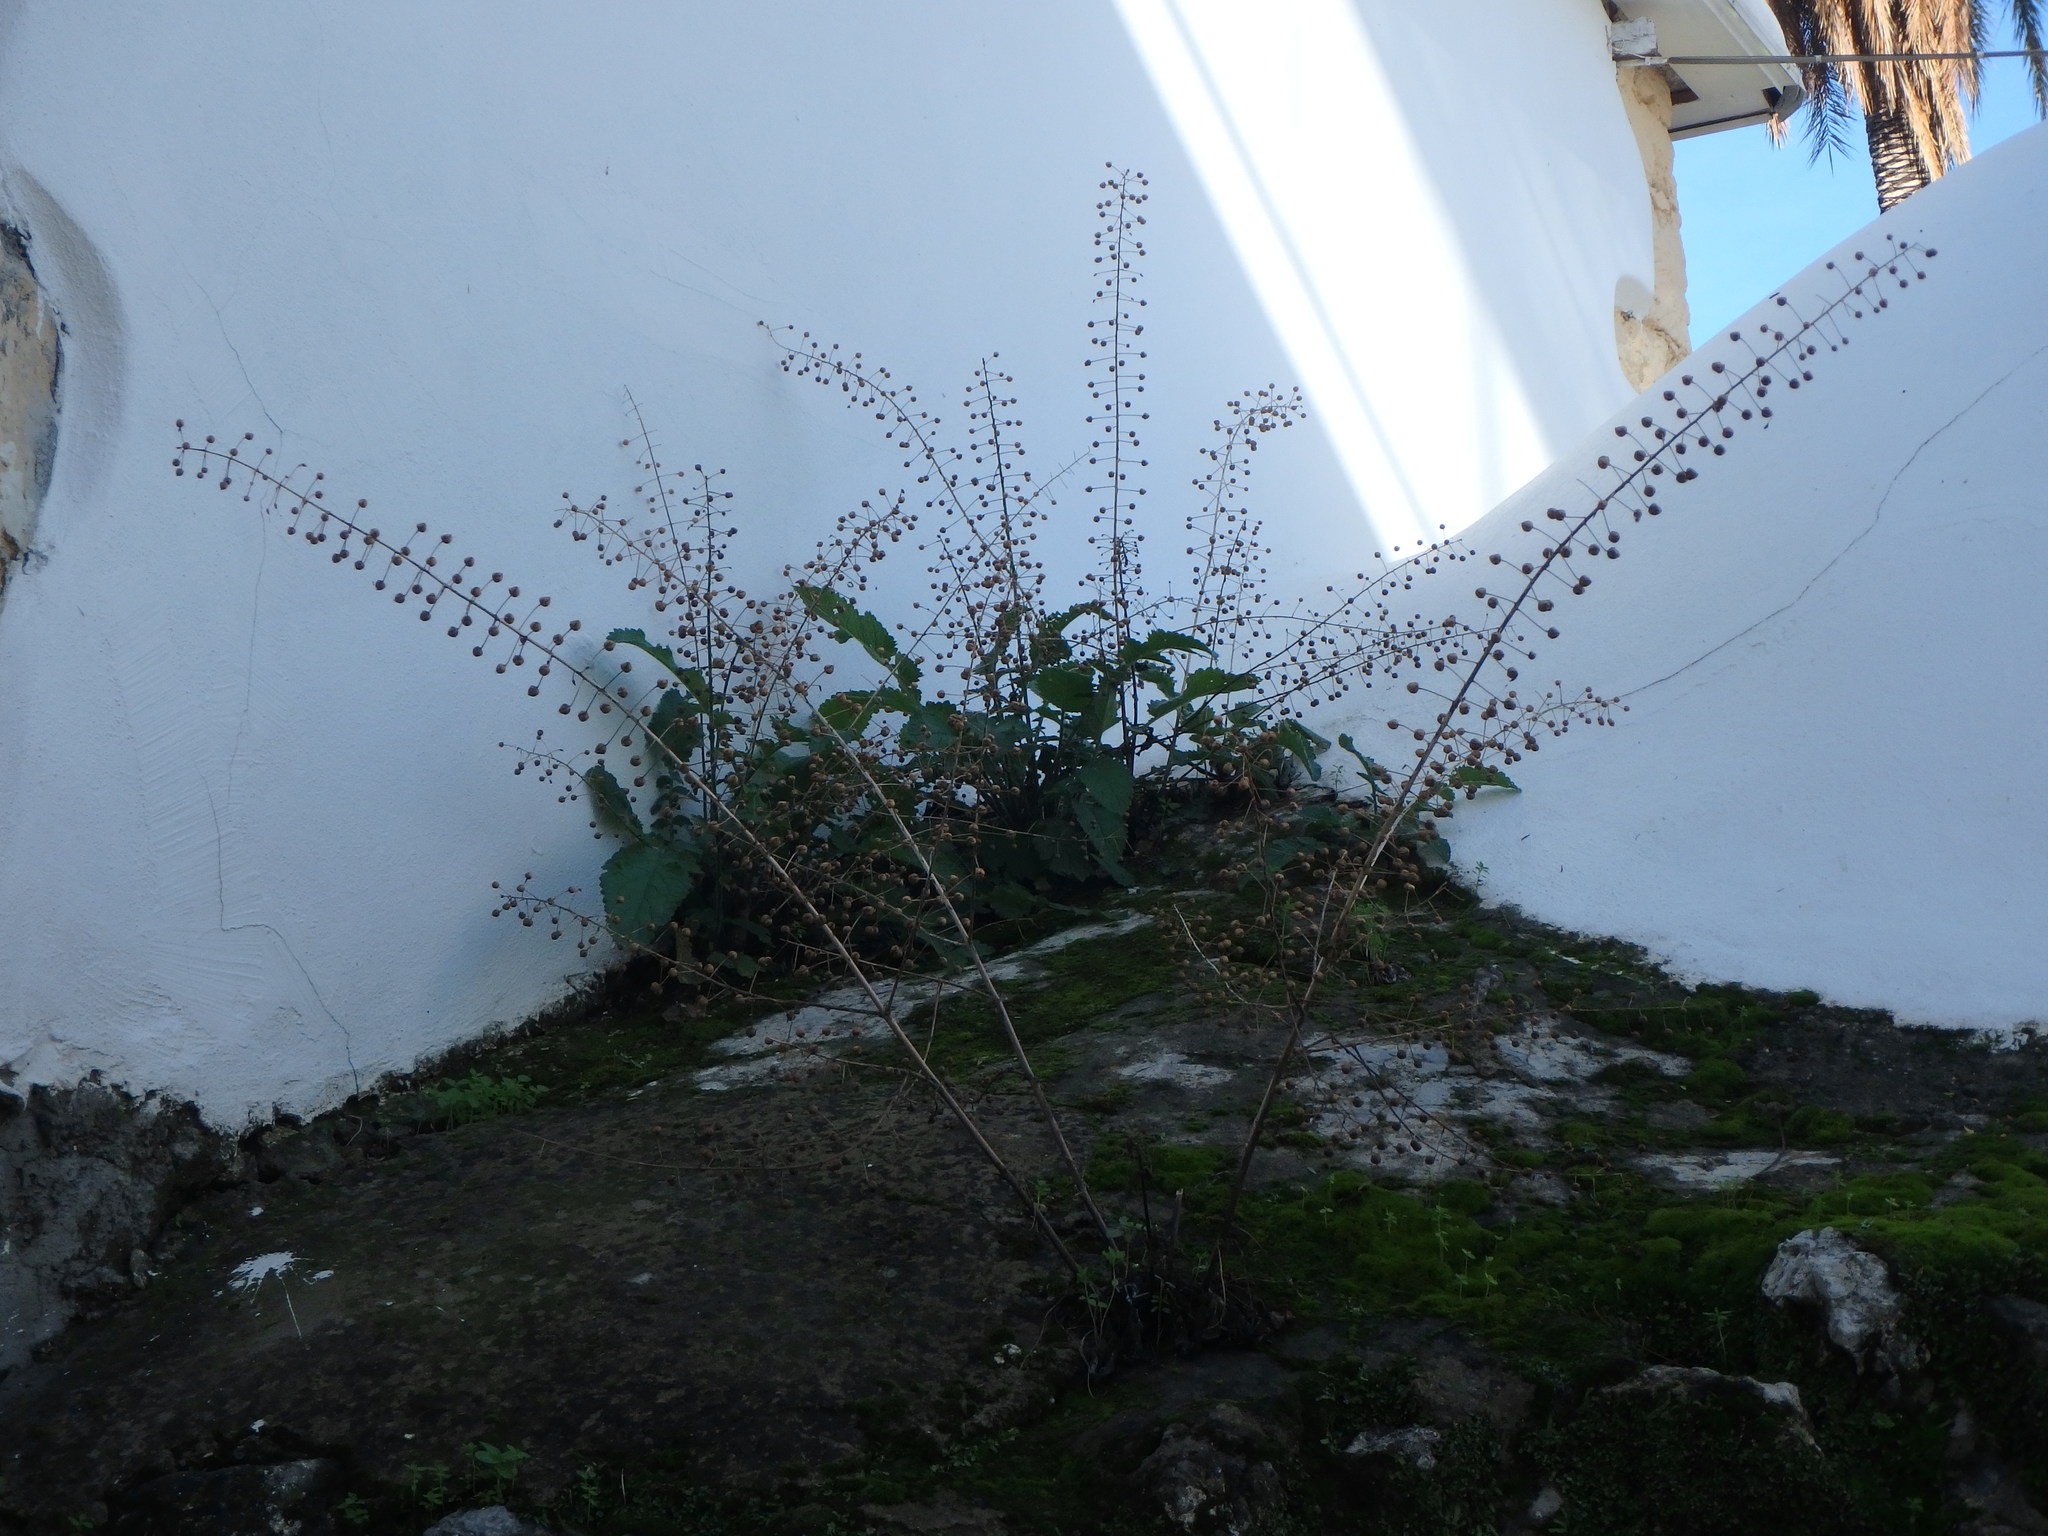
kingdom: Plantae
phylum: Tracheophyta
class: Magnoliopsida
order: Lamiales
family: Scrophulariaceae
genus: Verbascum
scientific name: Verbascum levanticum
